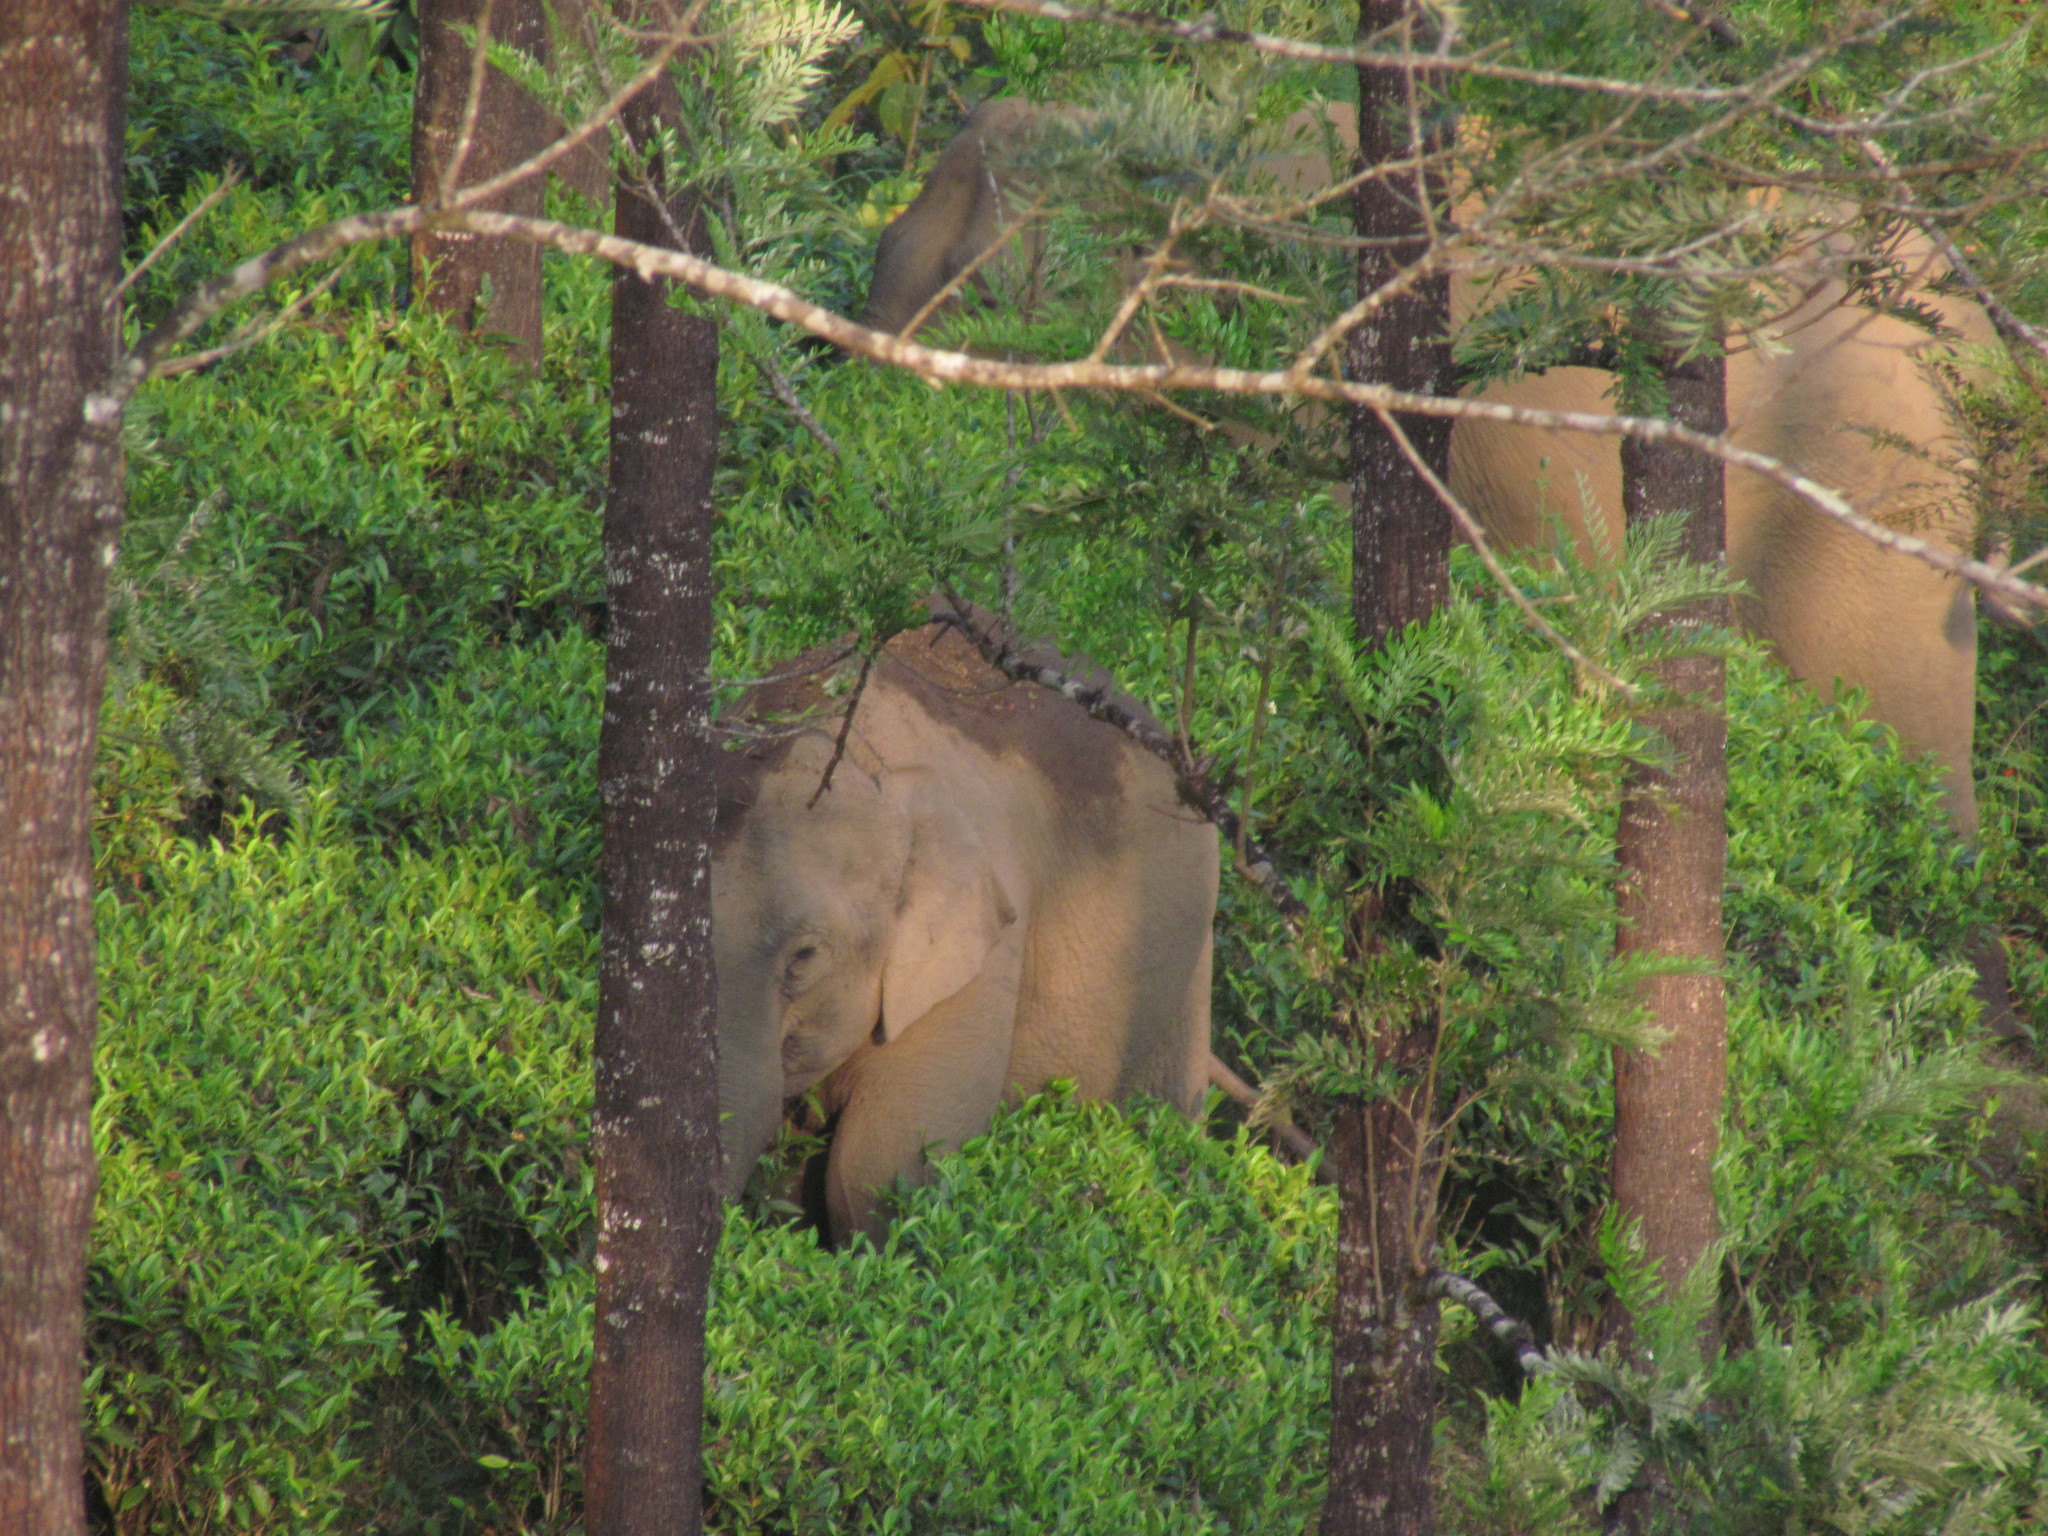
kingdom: Animalia
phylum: Chordata
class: Mammalia
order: Proboscidea
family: Elephantidae
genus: Elephas
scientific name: Elephas maximus
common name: Asian elephant
